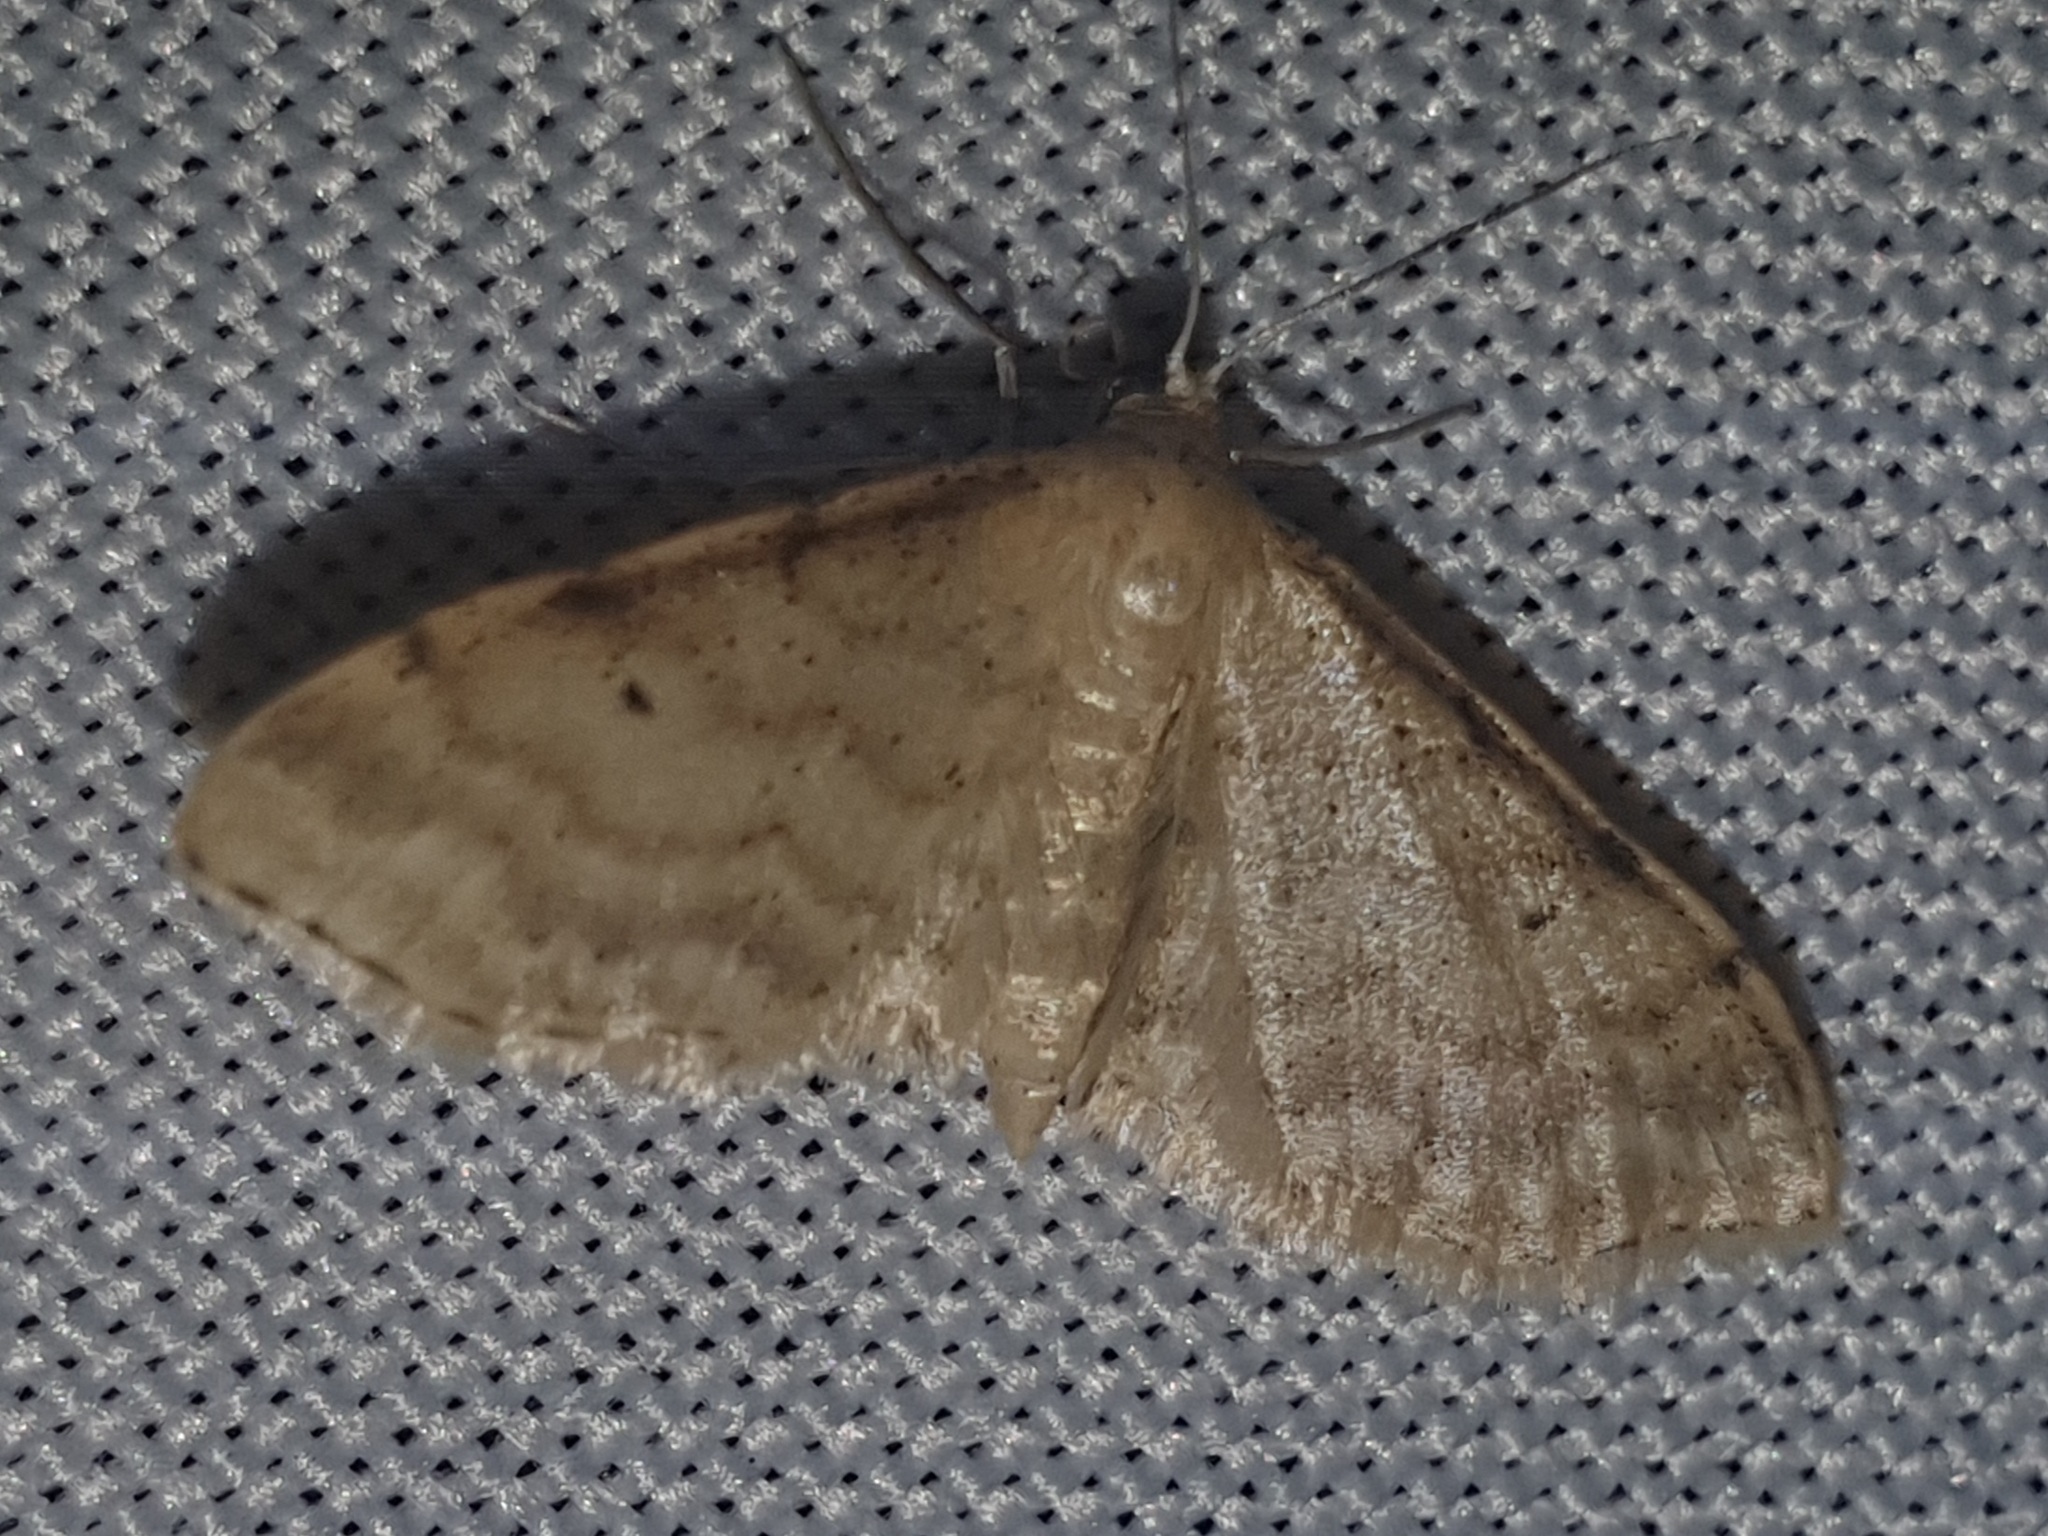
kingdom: Animalia
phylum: Arthropoda
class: Insecta
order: Lepidoptera
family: Geometridae
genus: Idaea
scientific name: Idaea fuscovenosa
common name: Dwarf cream wave
